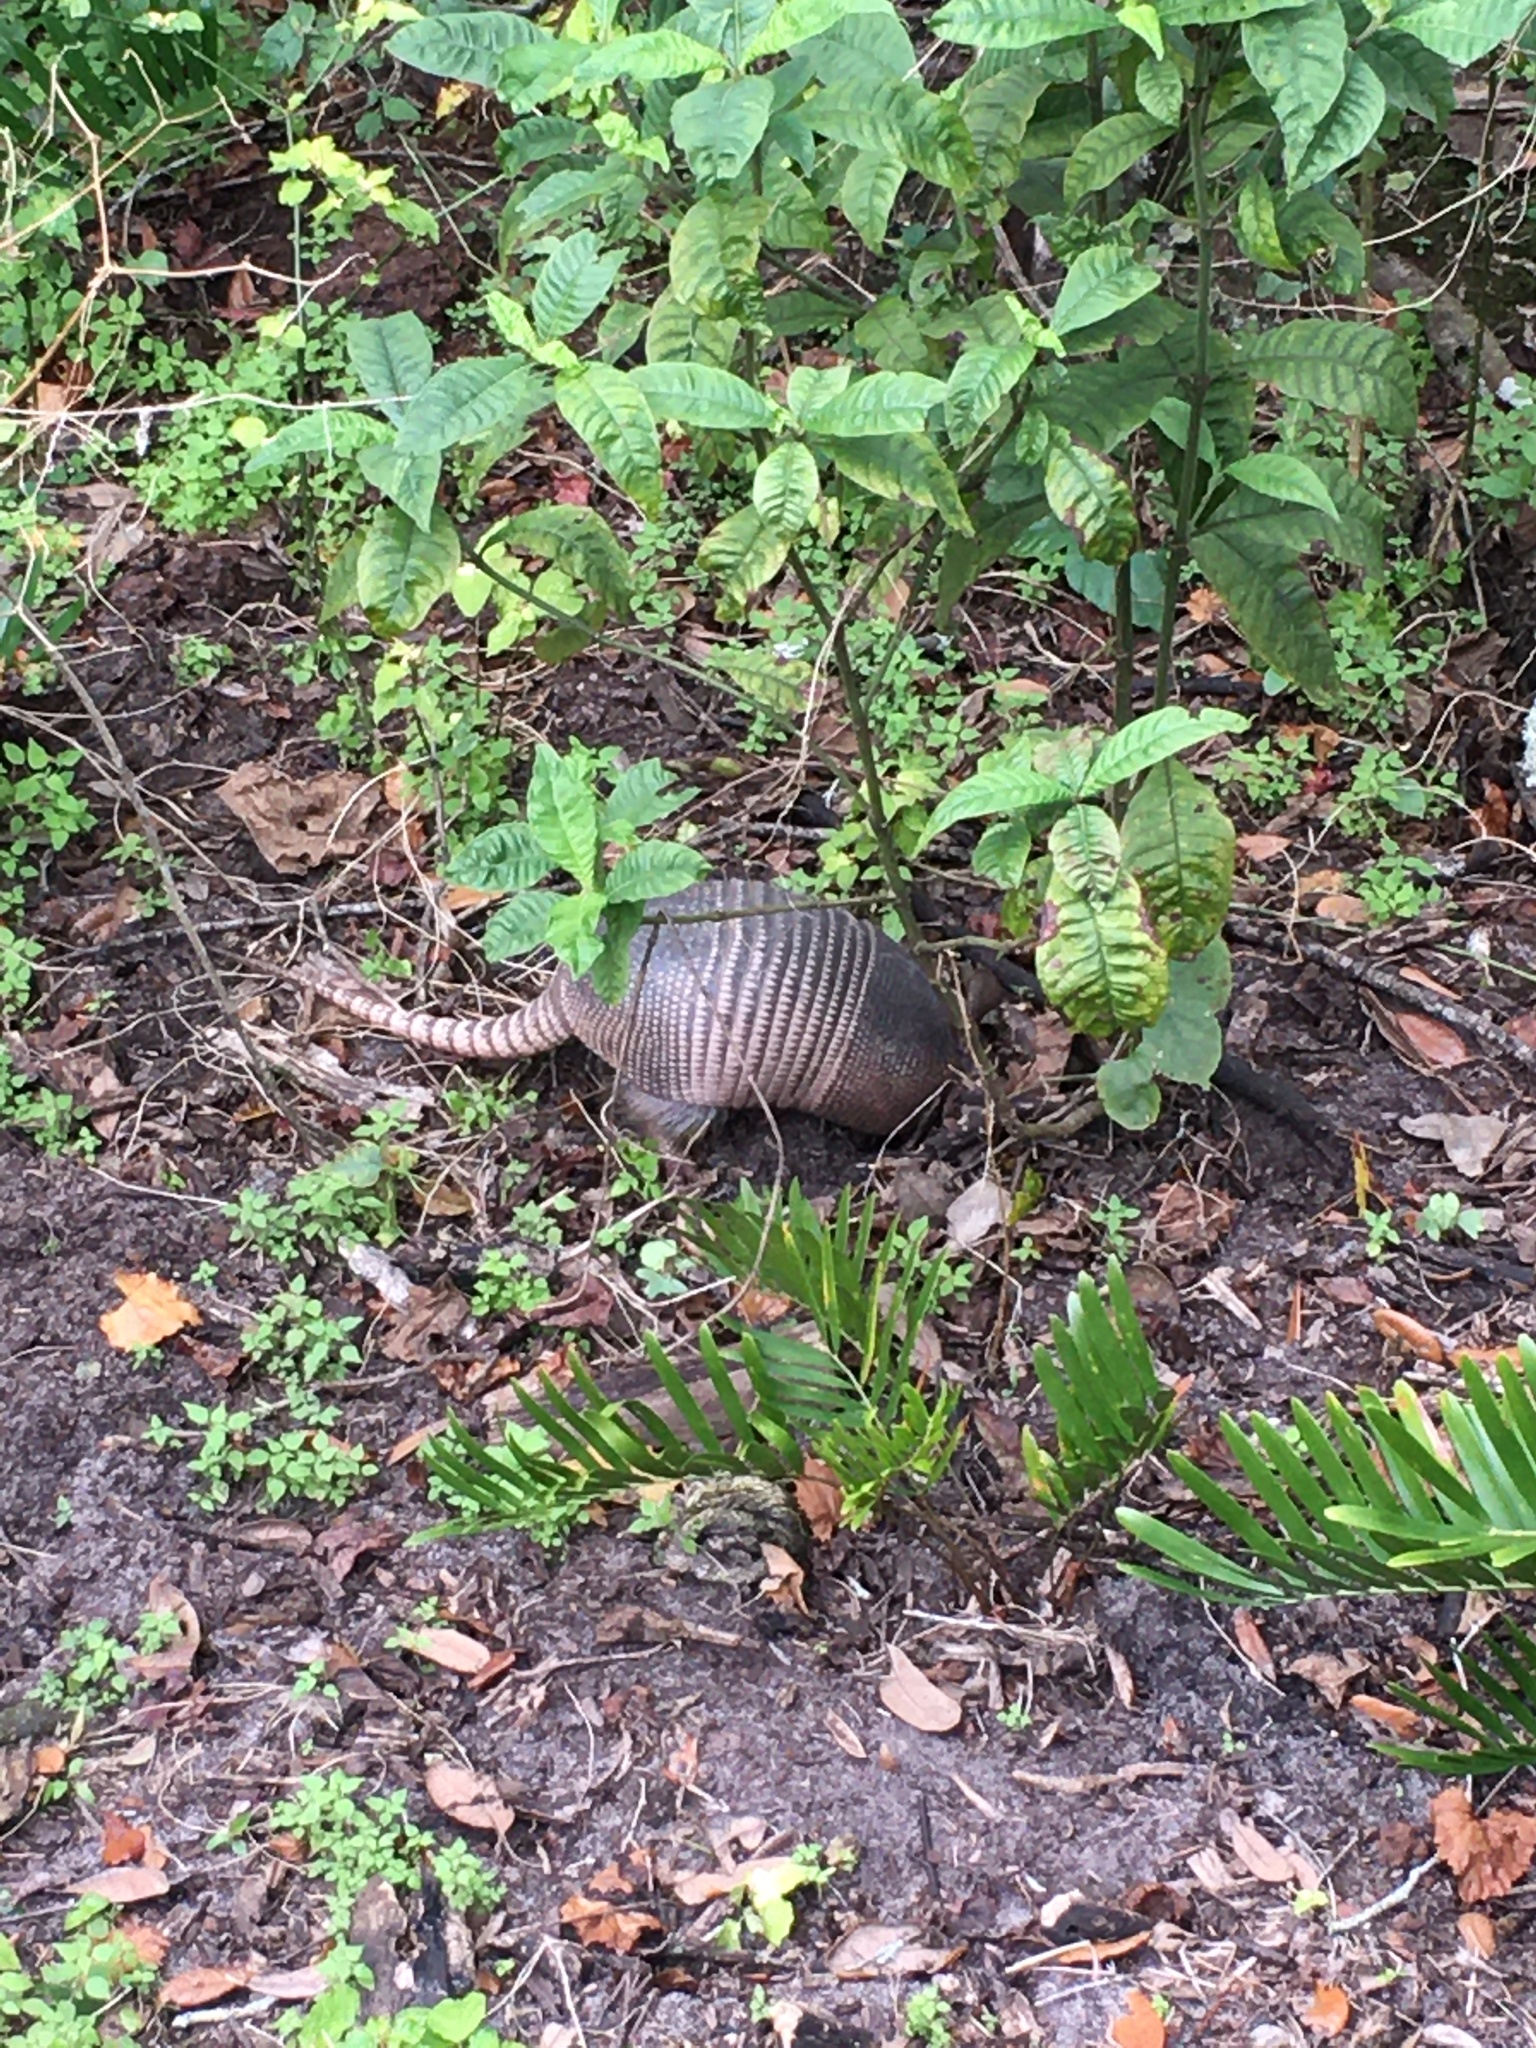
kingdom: Animalia
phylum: Chordata
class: Mammalia
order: Cingulata
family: Dasypodidae
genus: Dasypus
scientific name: Dasypus novemcinctus
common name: Nine-banded armadillo
